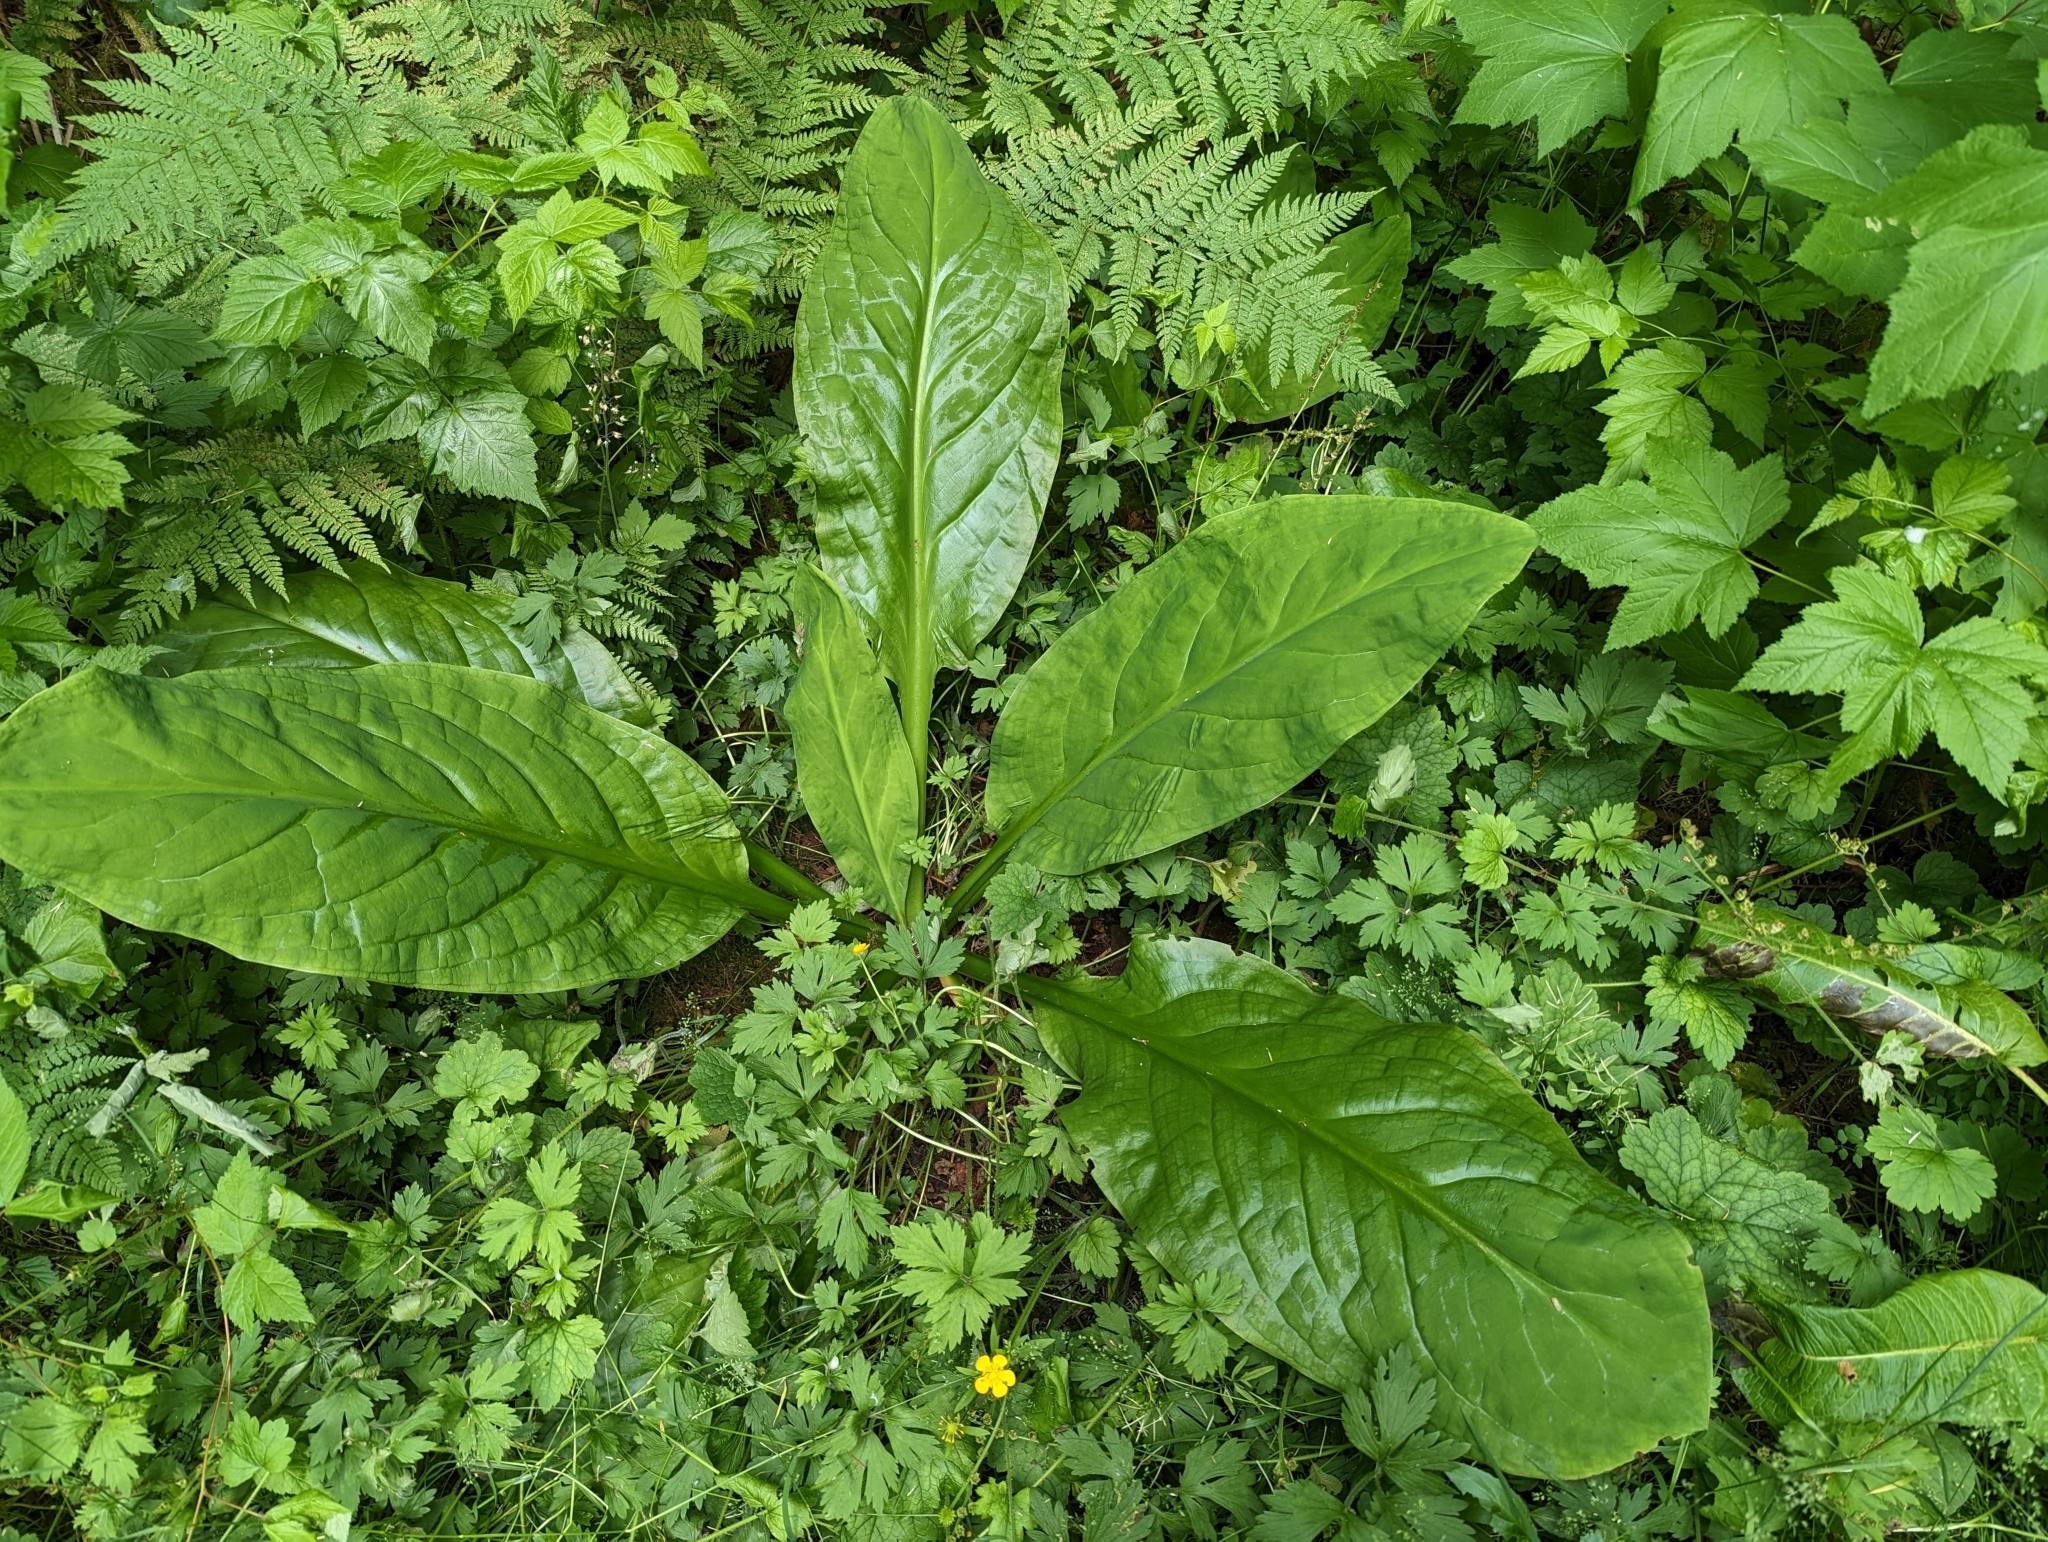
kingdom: Plantae
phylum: Tracheophyta
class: Liliopsida
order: Alismatales
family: Araceae
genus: Lysichiton
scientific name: Lysichiton americanus
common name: American skunk cabbage
